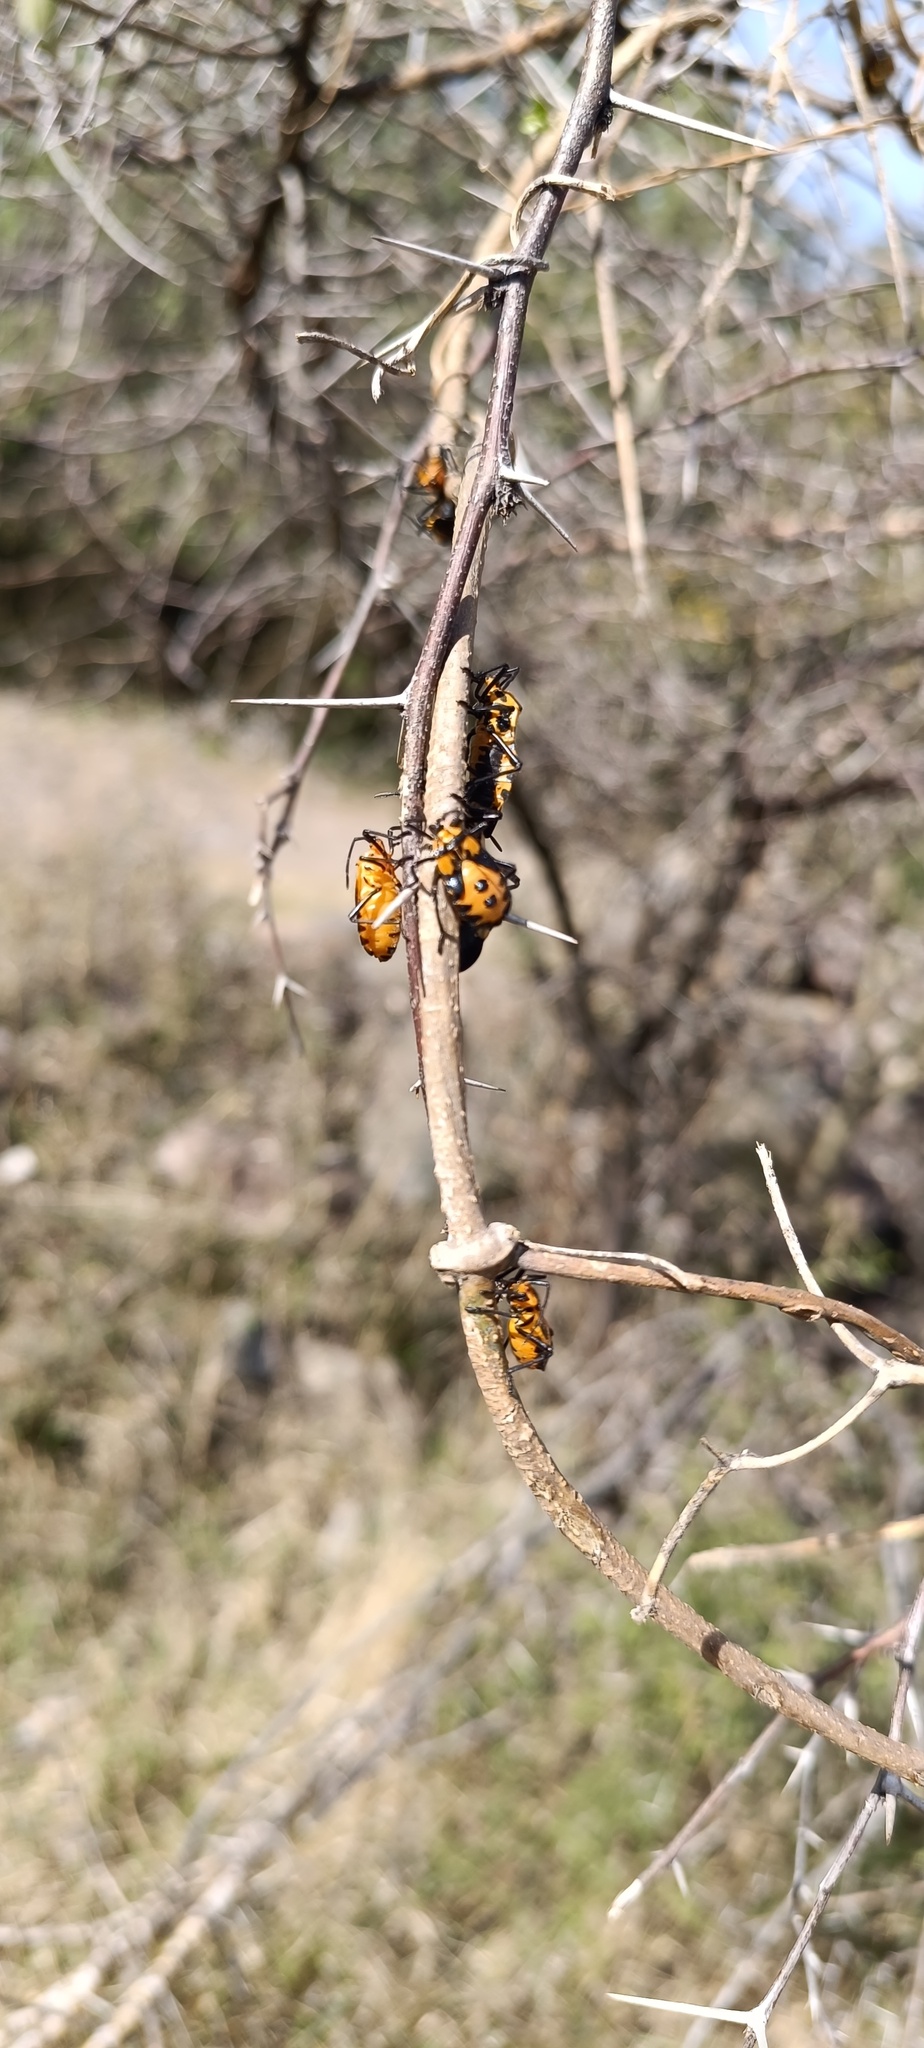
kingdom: Animalia
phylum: Arthropoda
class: Insecta
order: Hemiptera
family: Pentatomidae
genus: Murgantia
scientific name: Murgantia histrionica
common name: Harlequin bug
